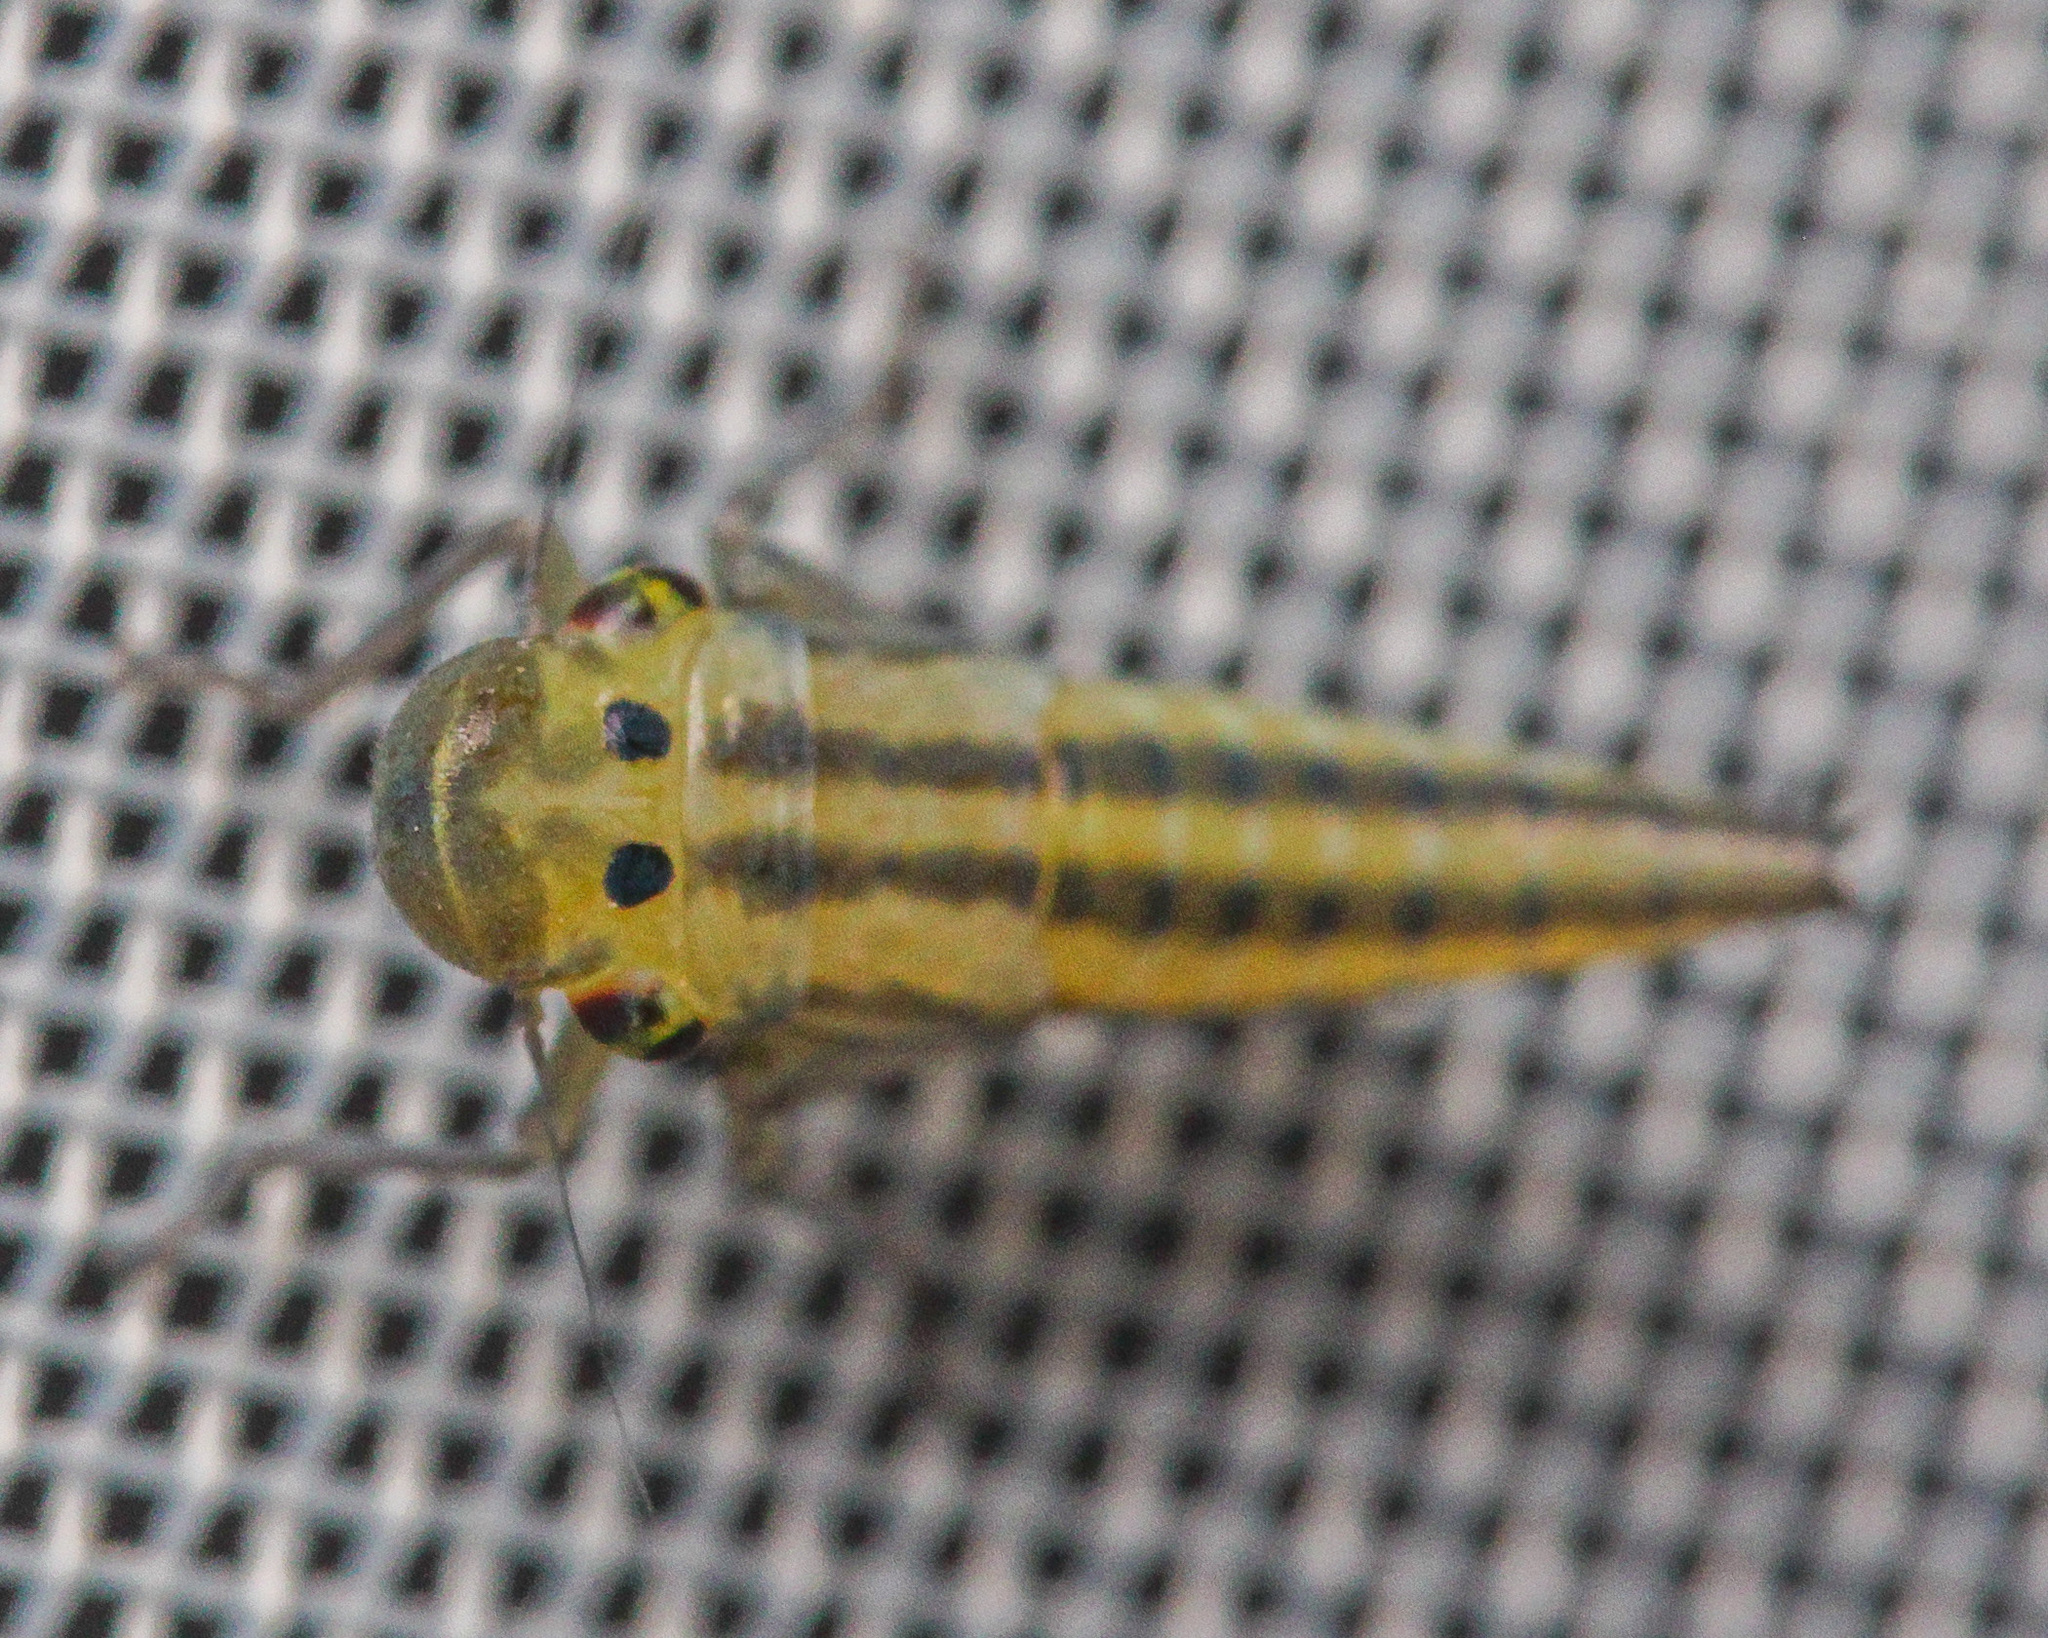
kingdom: Animalia
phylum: Arthropoda
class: Insecta
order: Hemiptera
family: Cicadellidae
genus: Cicadella
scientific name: Cicadella viridis
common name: Leafhopper
